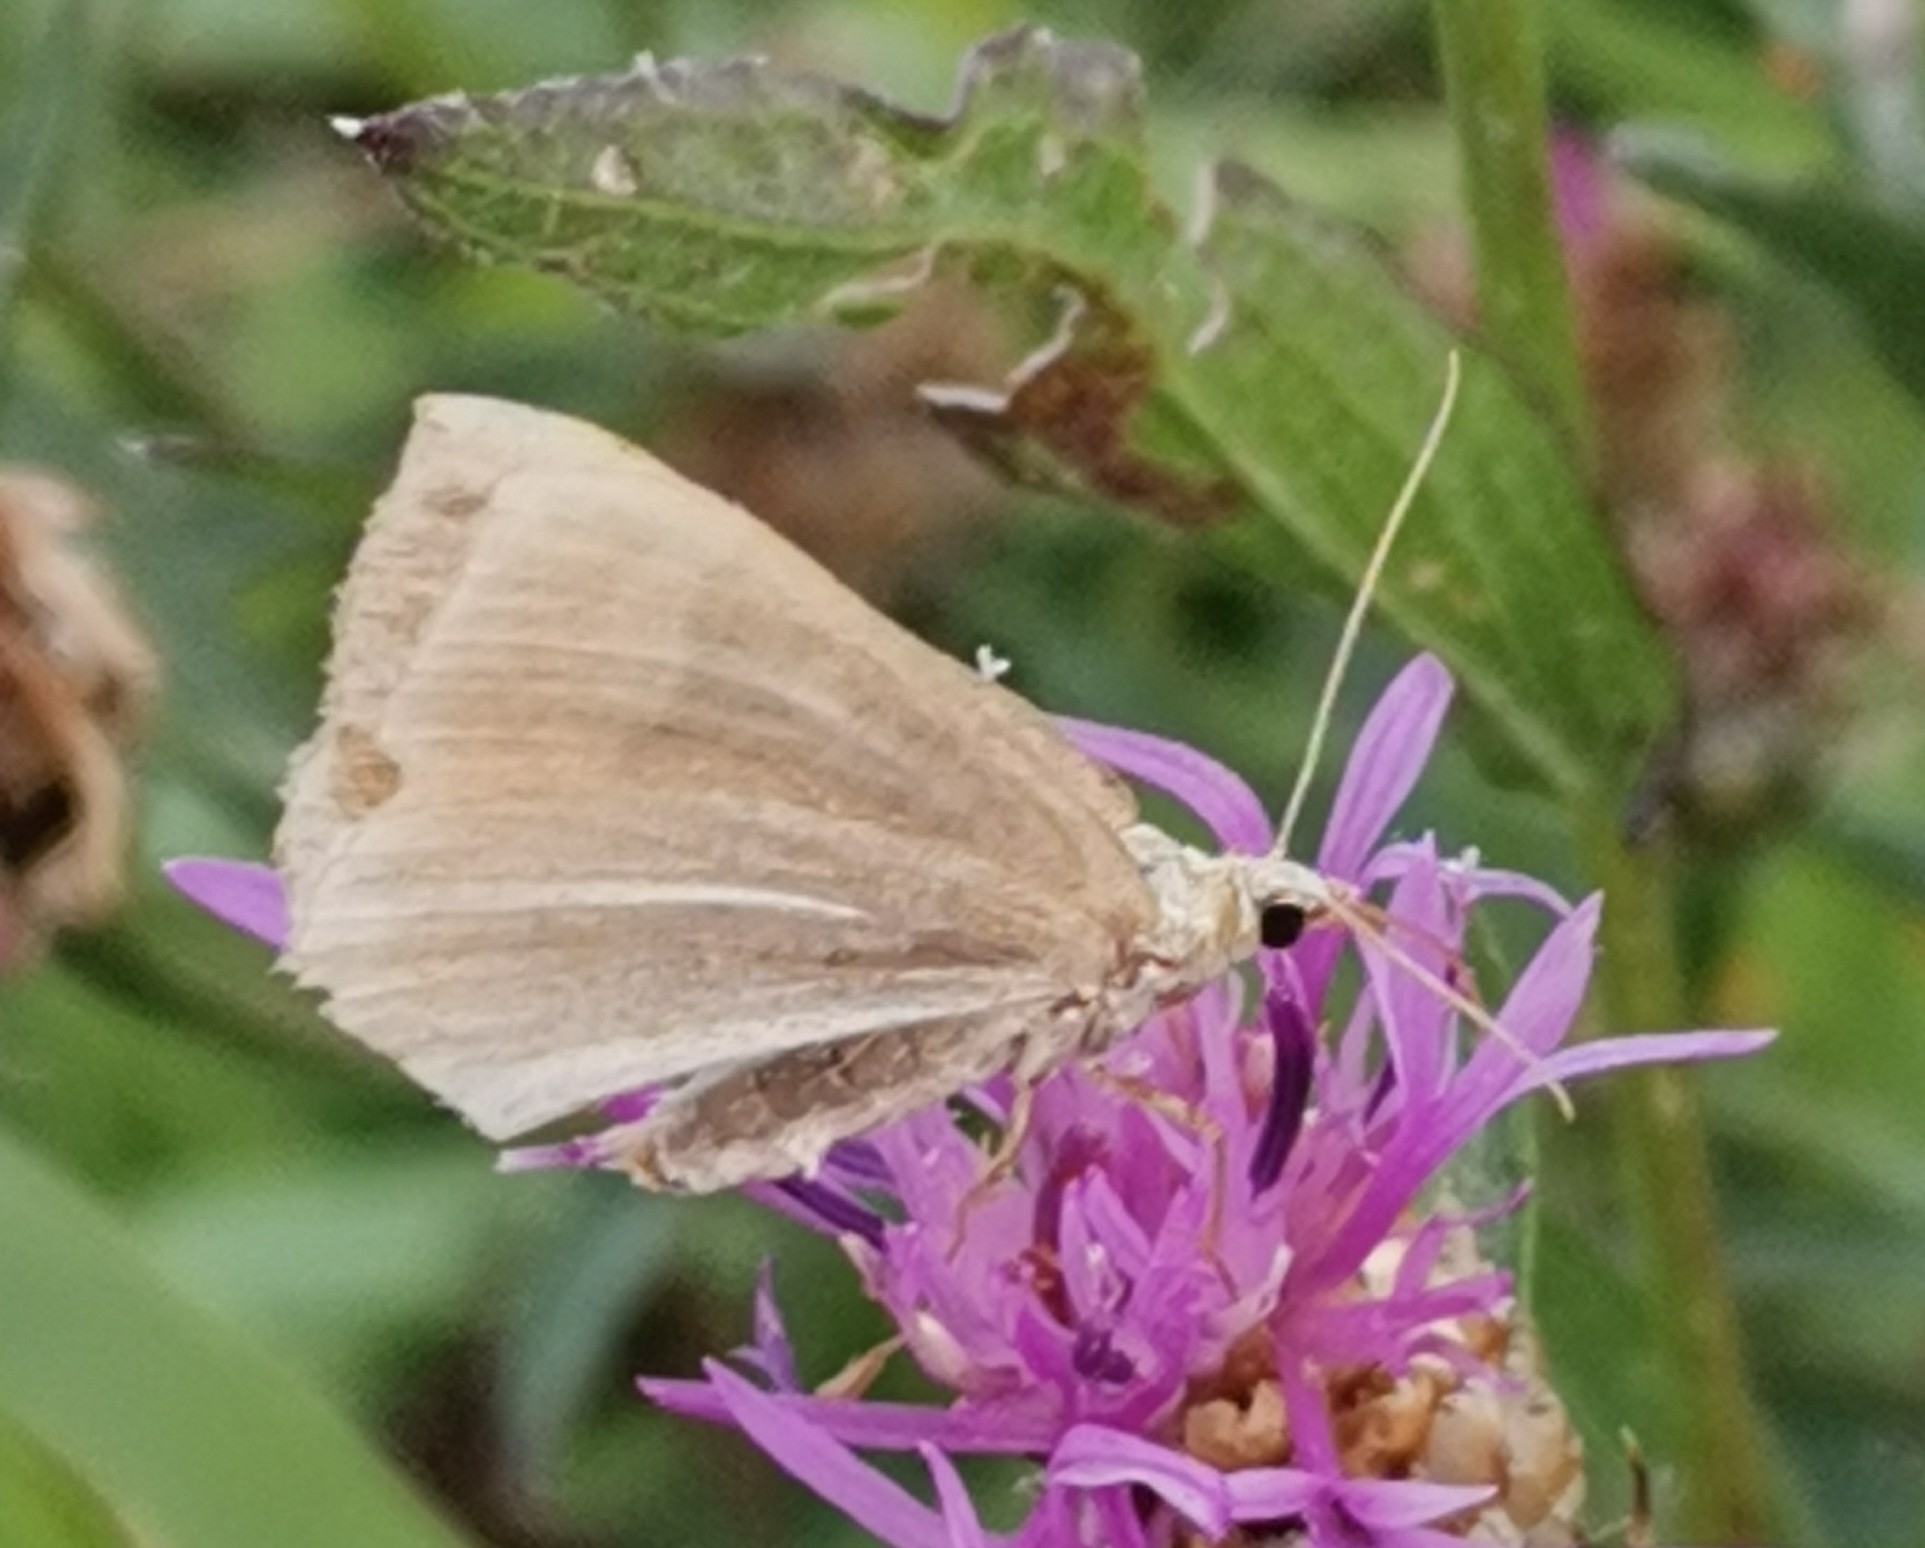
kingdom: Animalia
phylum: Arthropoda
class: Insecta
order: Lepidoptera
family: Geometridae
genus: Scotopteryx
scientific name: Scotopteryx chenopodiata
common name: Shaded broad-bar
